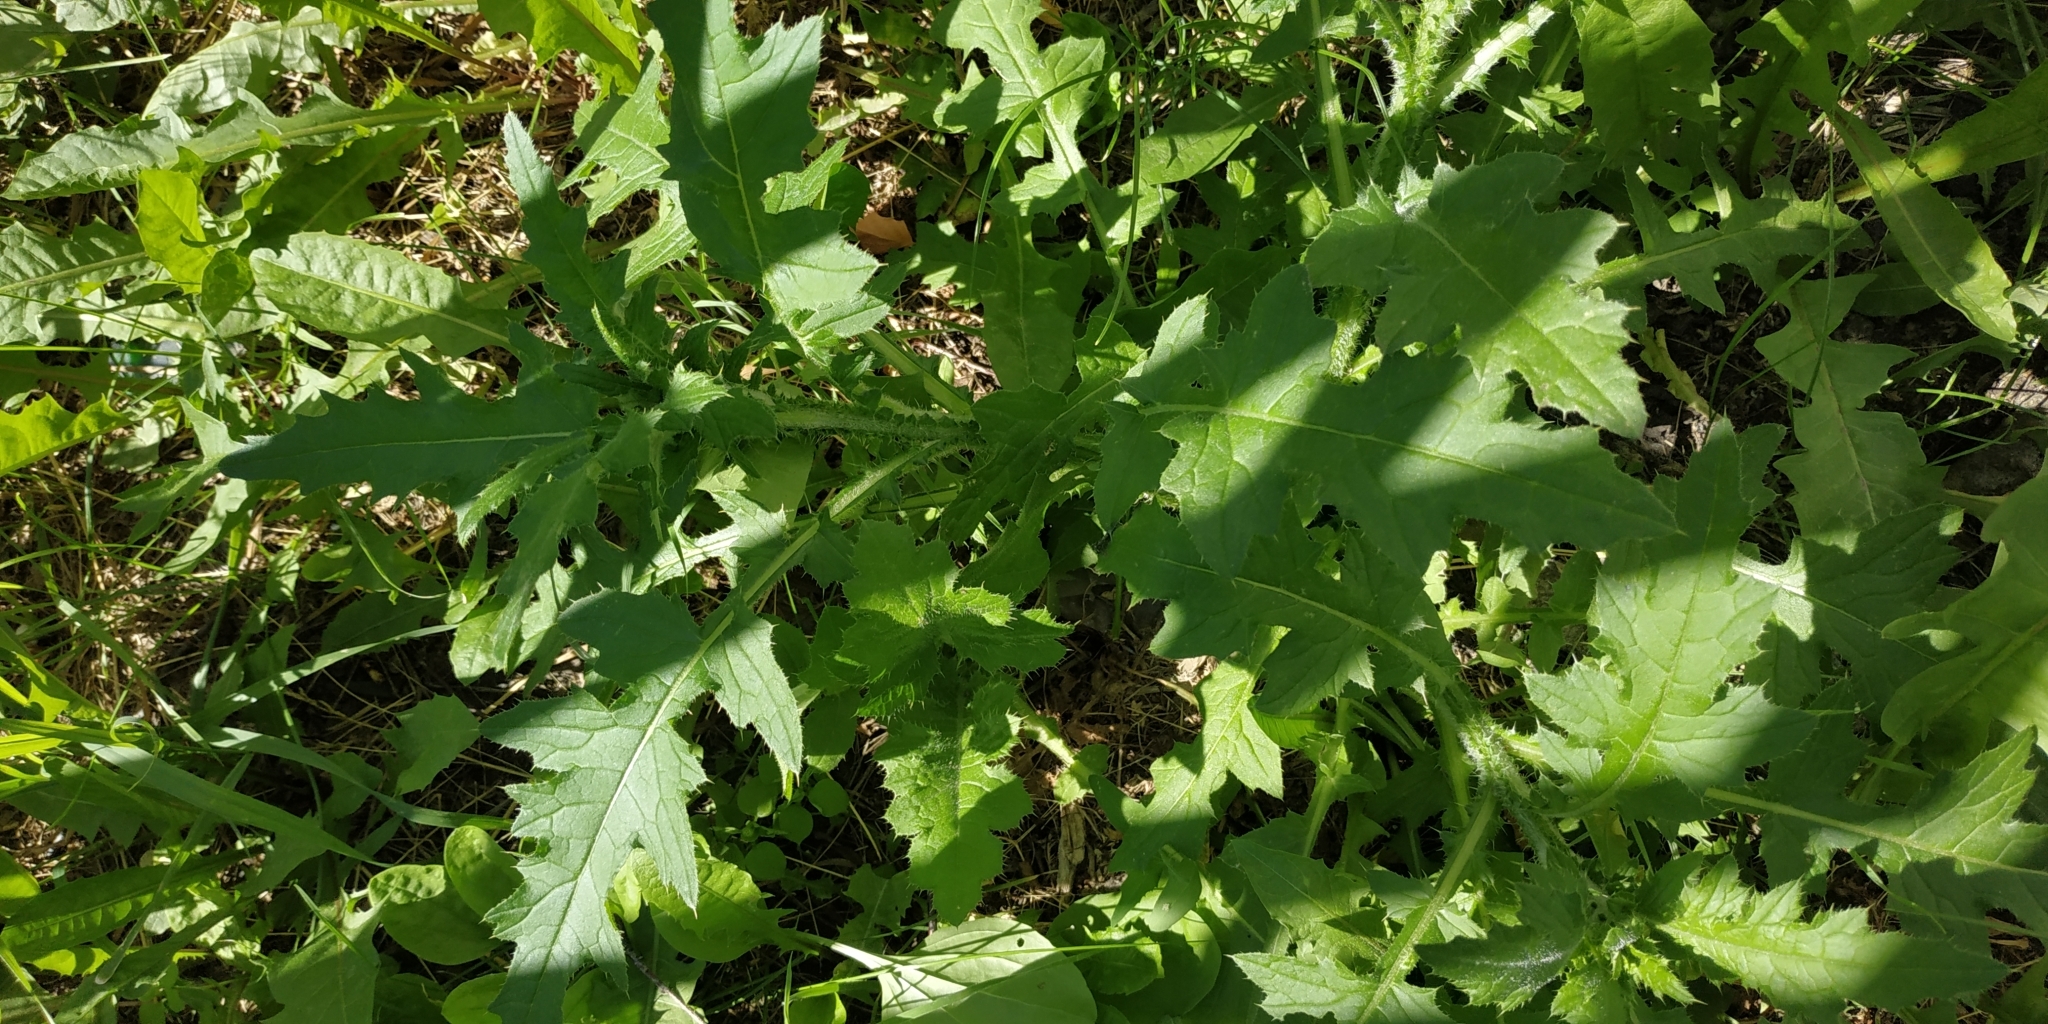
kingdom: Plantae
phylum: Tracheophyta
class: Magnoliopsida
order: Asterales
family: Asteraceae
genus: Carduus
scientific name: Carduus crispus
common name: Welted thistle
